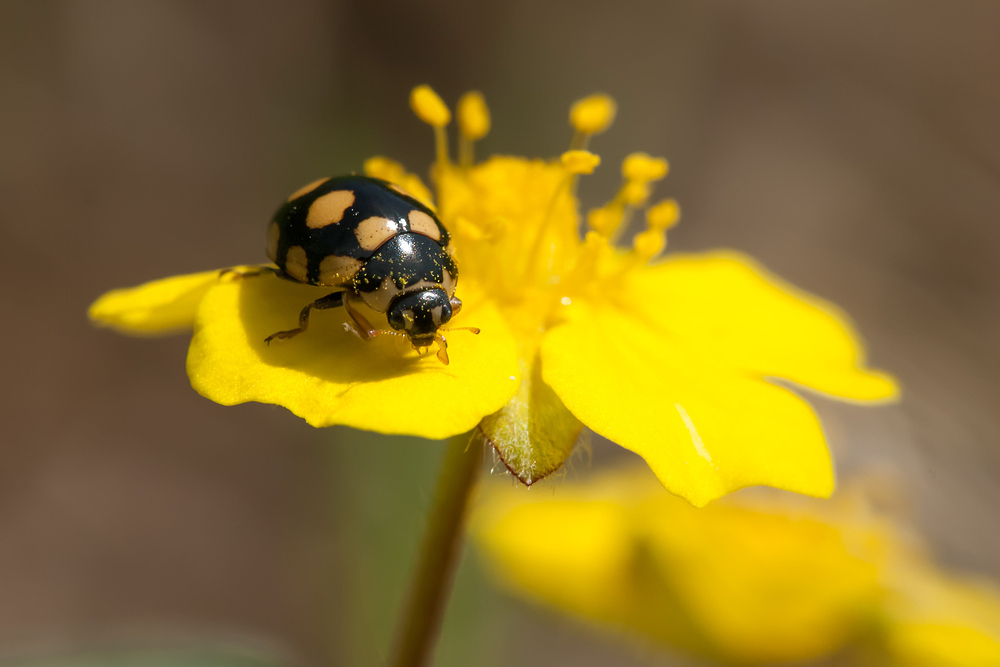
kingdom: Animalia
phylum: Arthropoda
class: Insecta
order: Coleoptera
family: Coccinellidae
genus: Coccinula
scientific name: Coccinula quatuordecimpustulata
